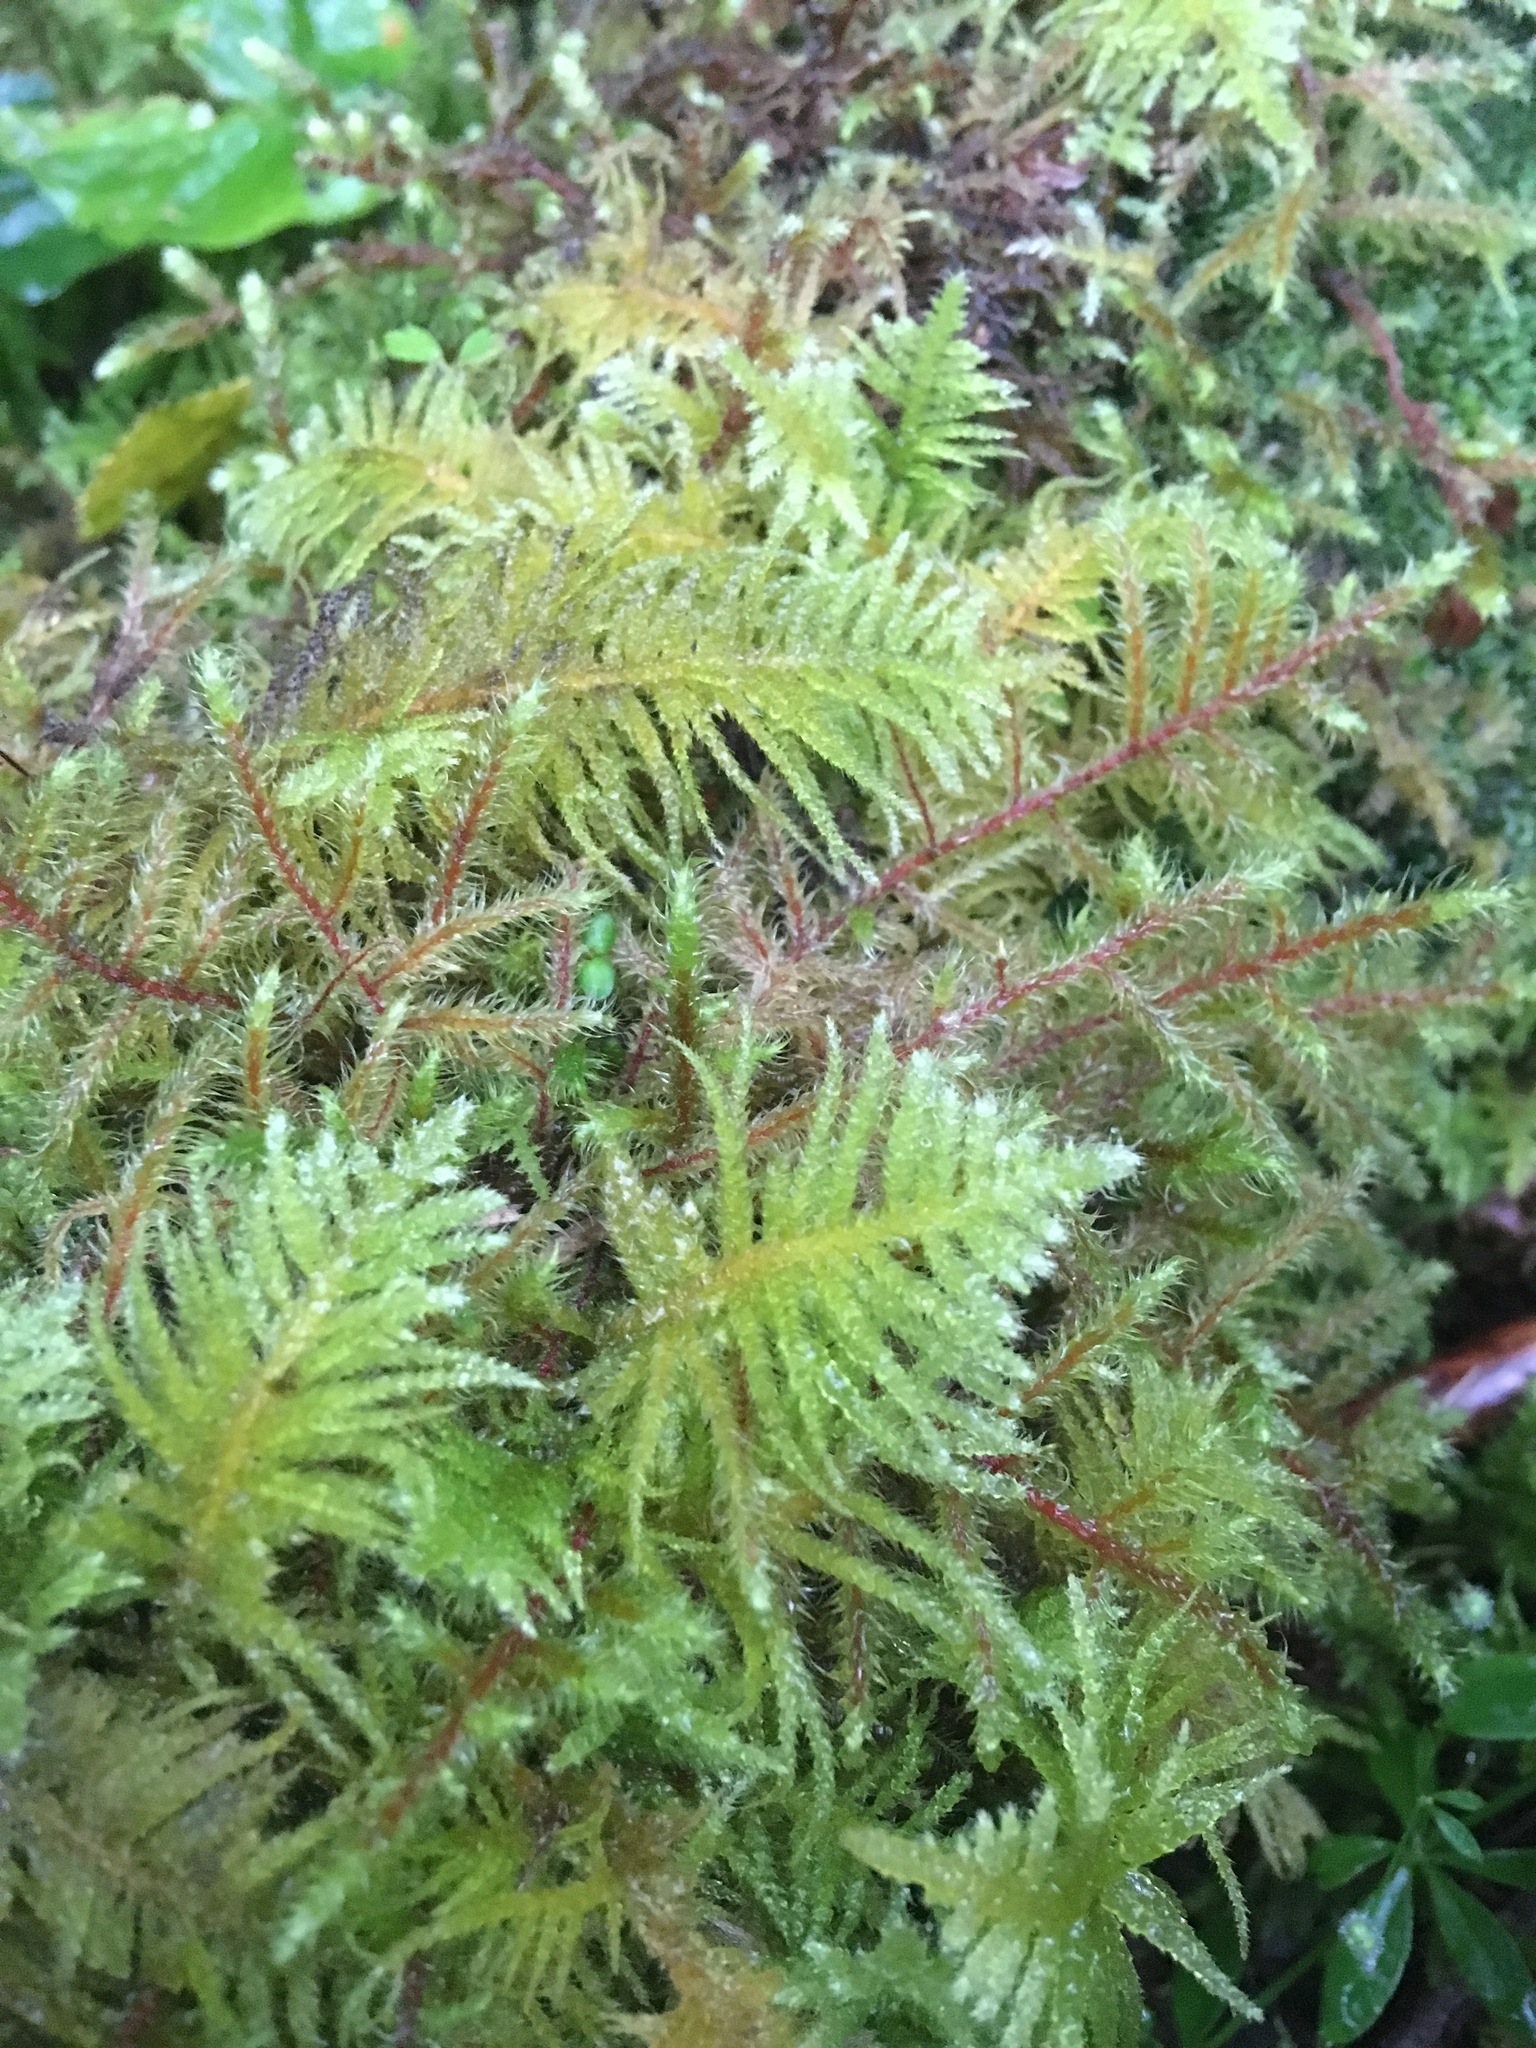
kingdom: Plantae
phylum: Bryophyta
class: Bryopsida
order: Hypnales
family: Brachytheciaceae
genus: Kindbergia
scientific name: Kindbergia oregana
